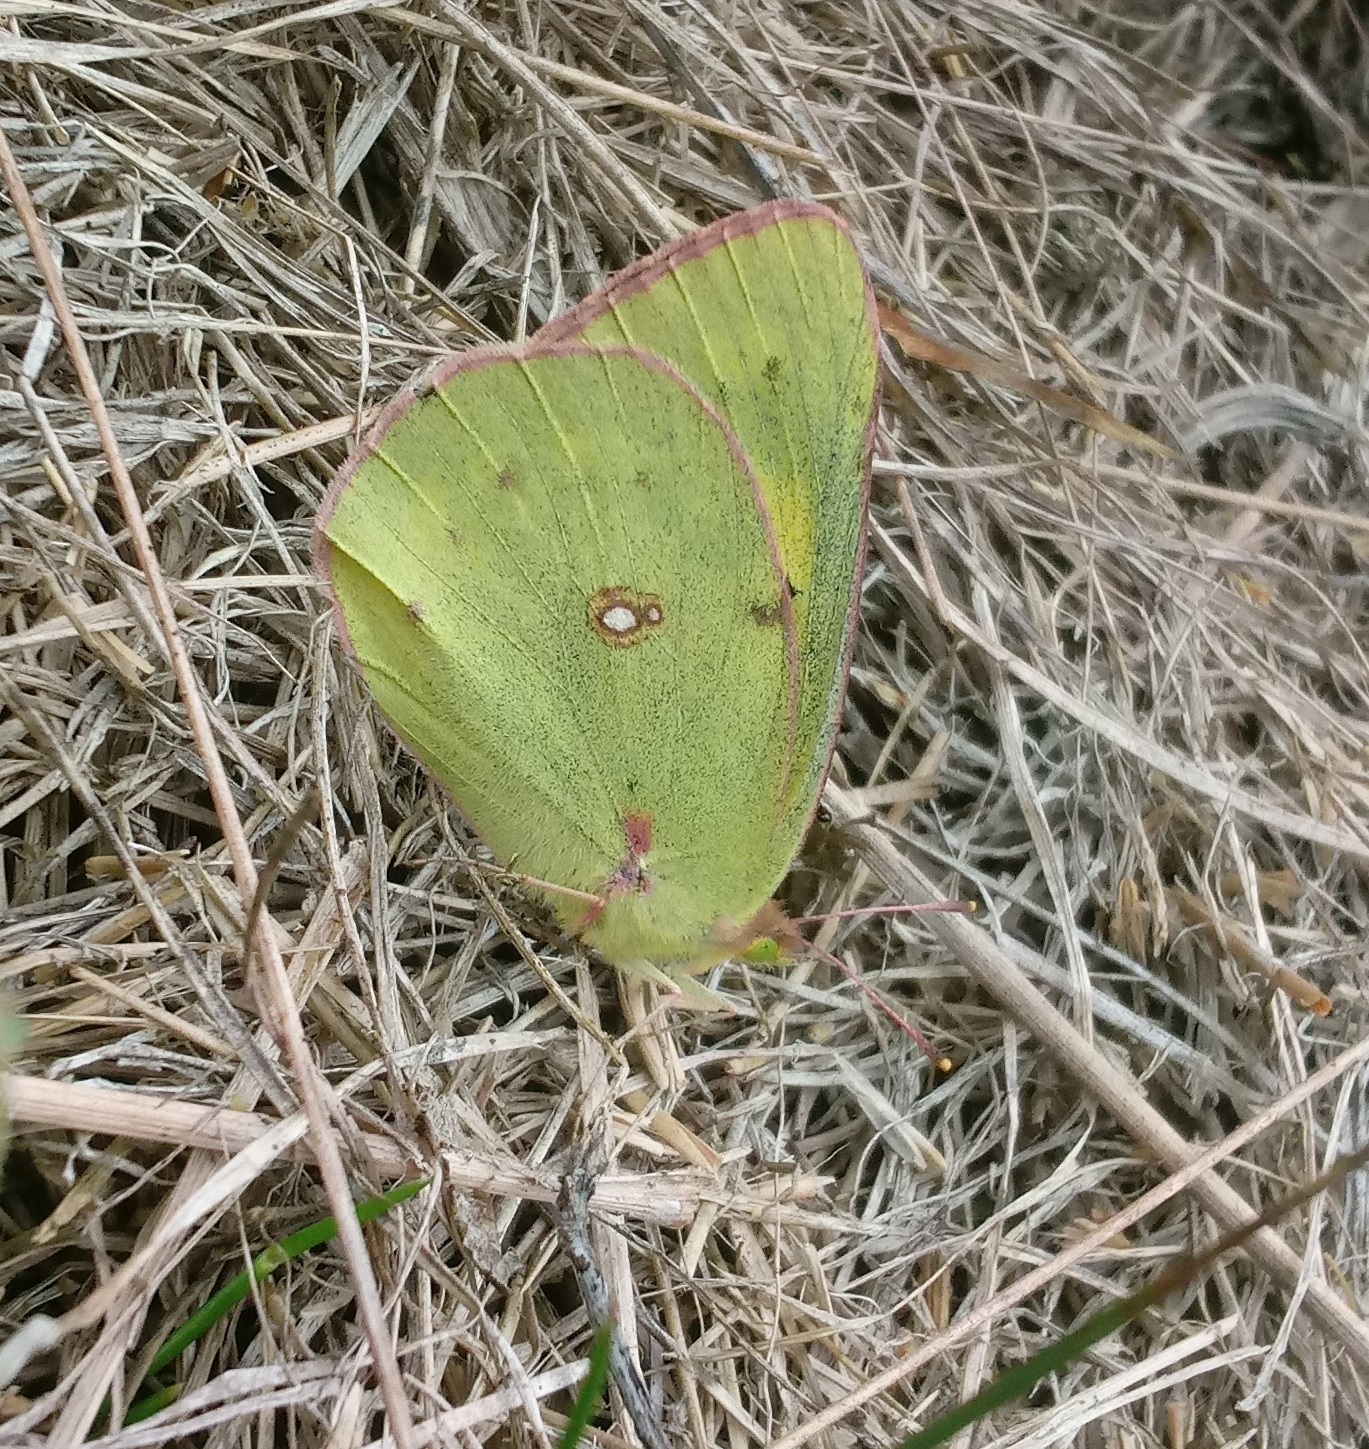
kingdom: Animalia
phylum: Arthropoda
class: Insecta
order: Lepidoptera
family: Pieridae
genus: Colias
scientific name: Colias philodice
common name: Clouded sulphur
